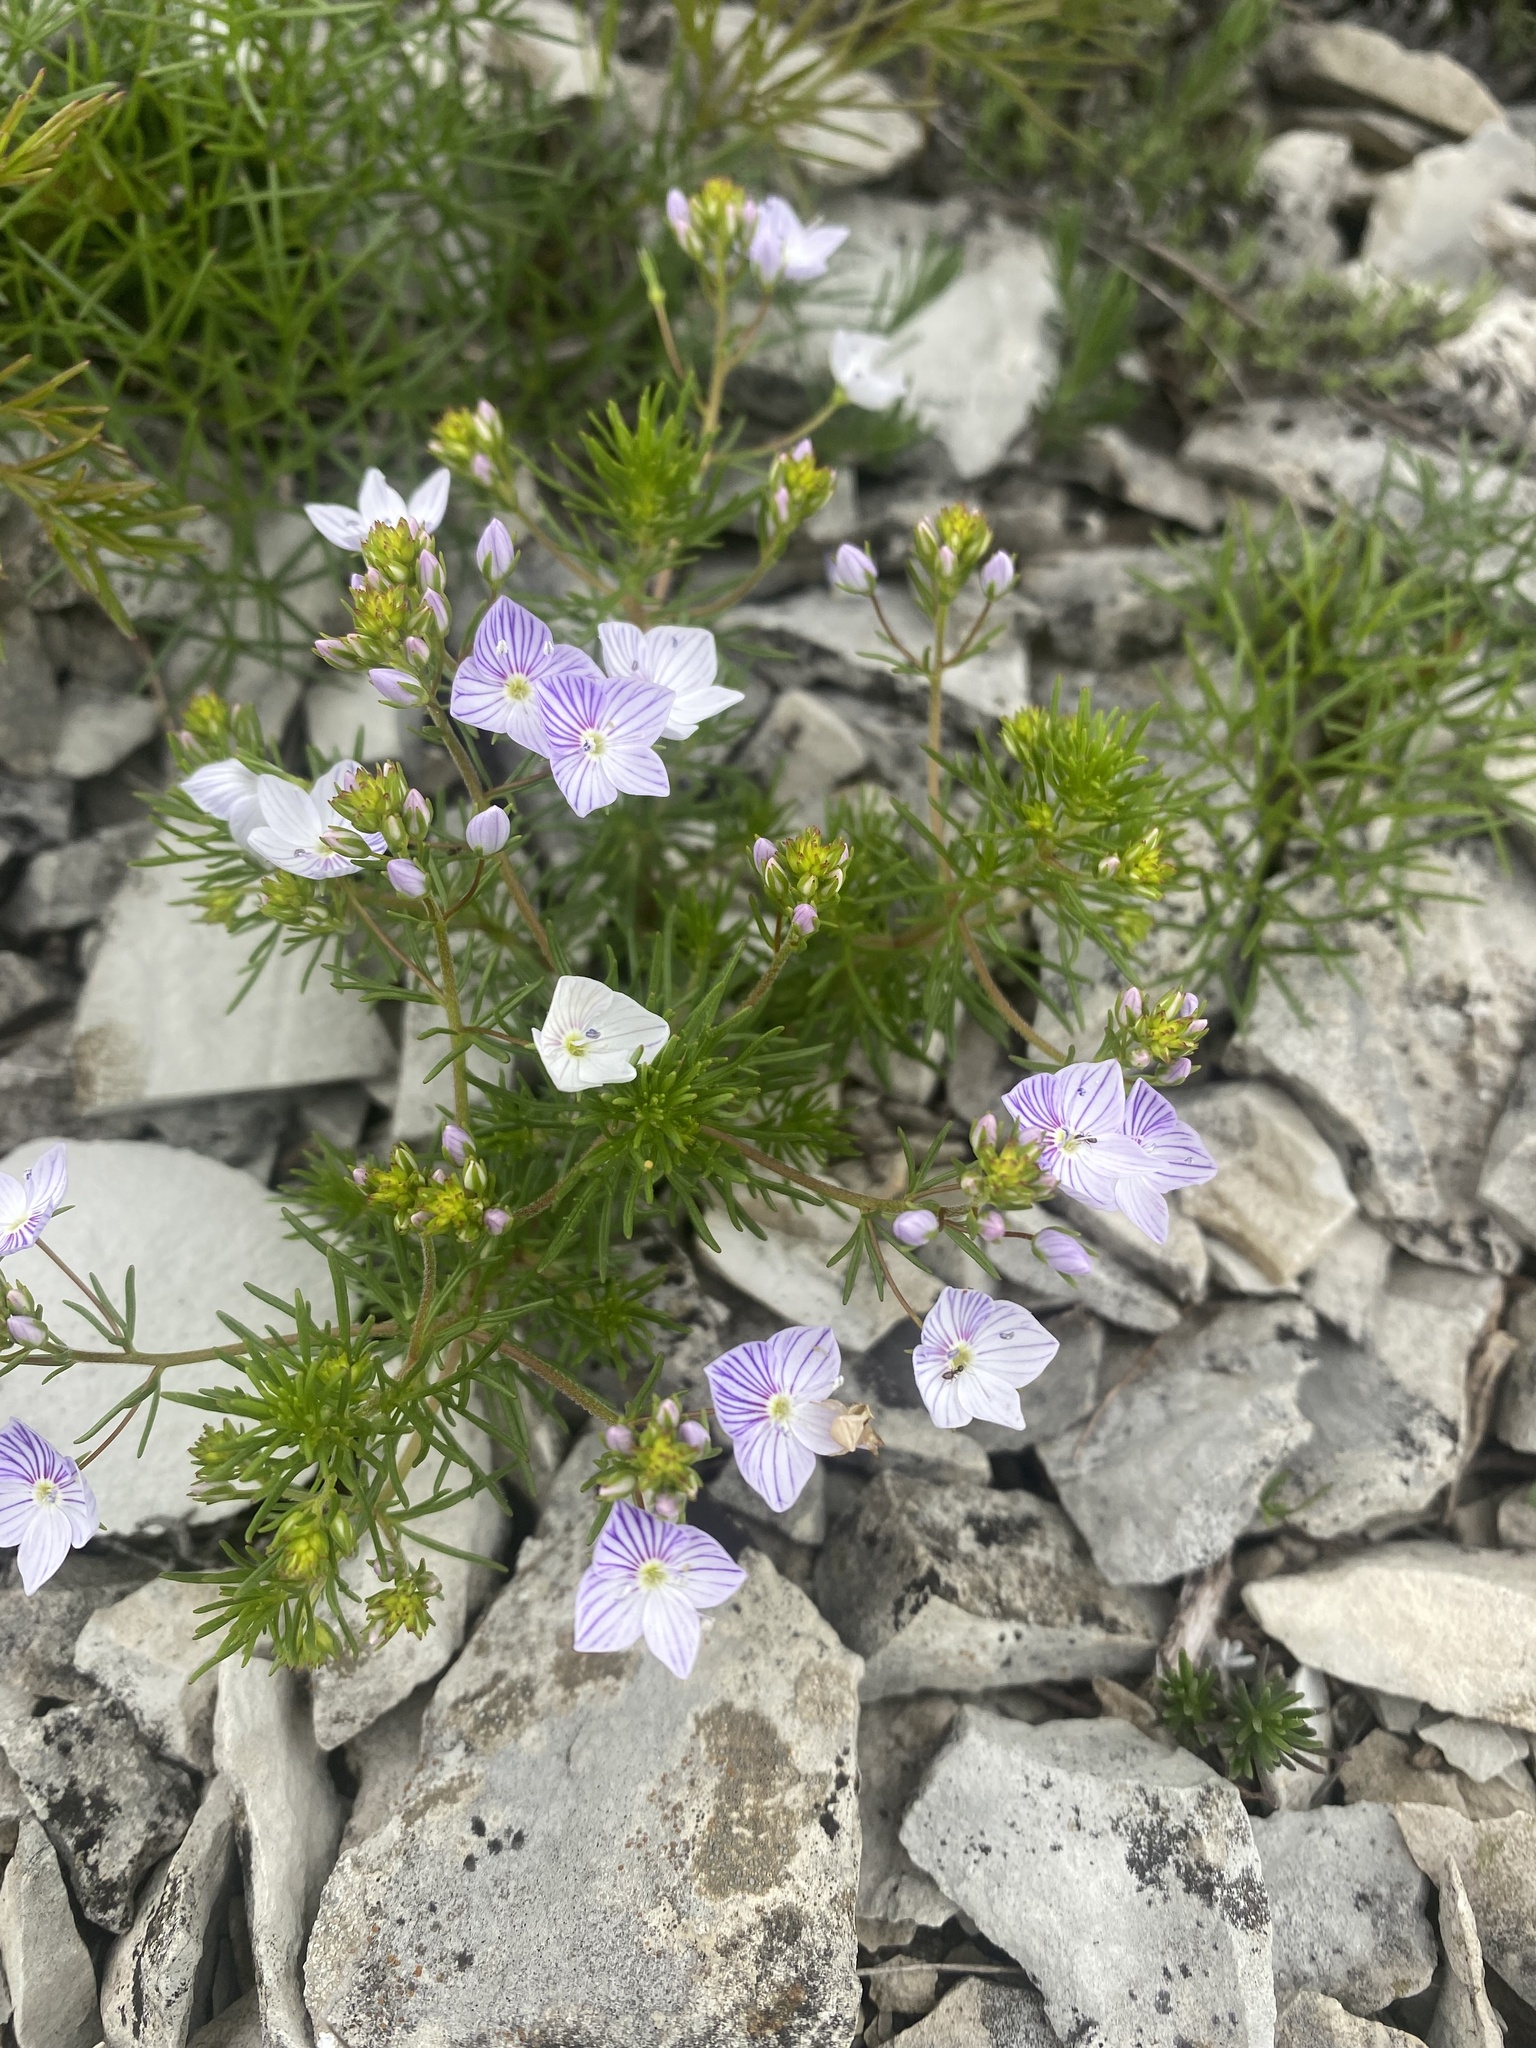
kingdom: Plantae
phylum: Tracheophyta
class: Magnoliopsida
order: Lamiales
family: Plantaginaceae
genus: Veronica
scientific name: Veronica filifolia
